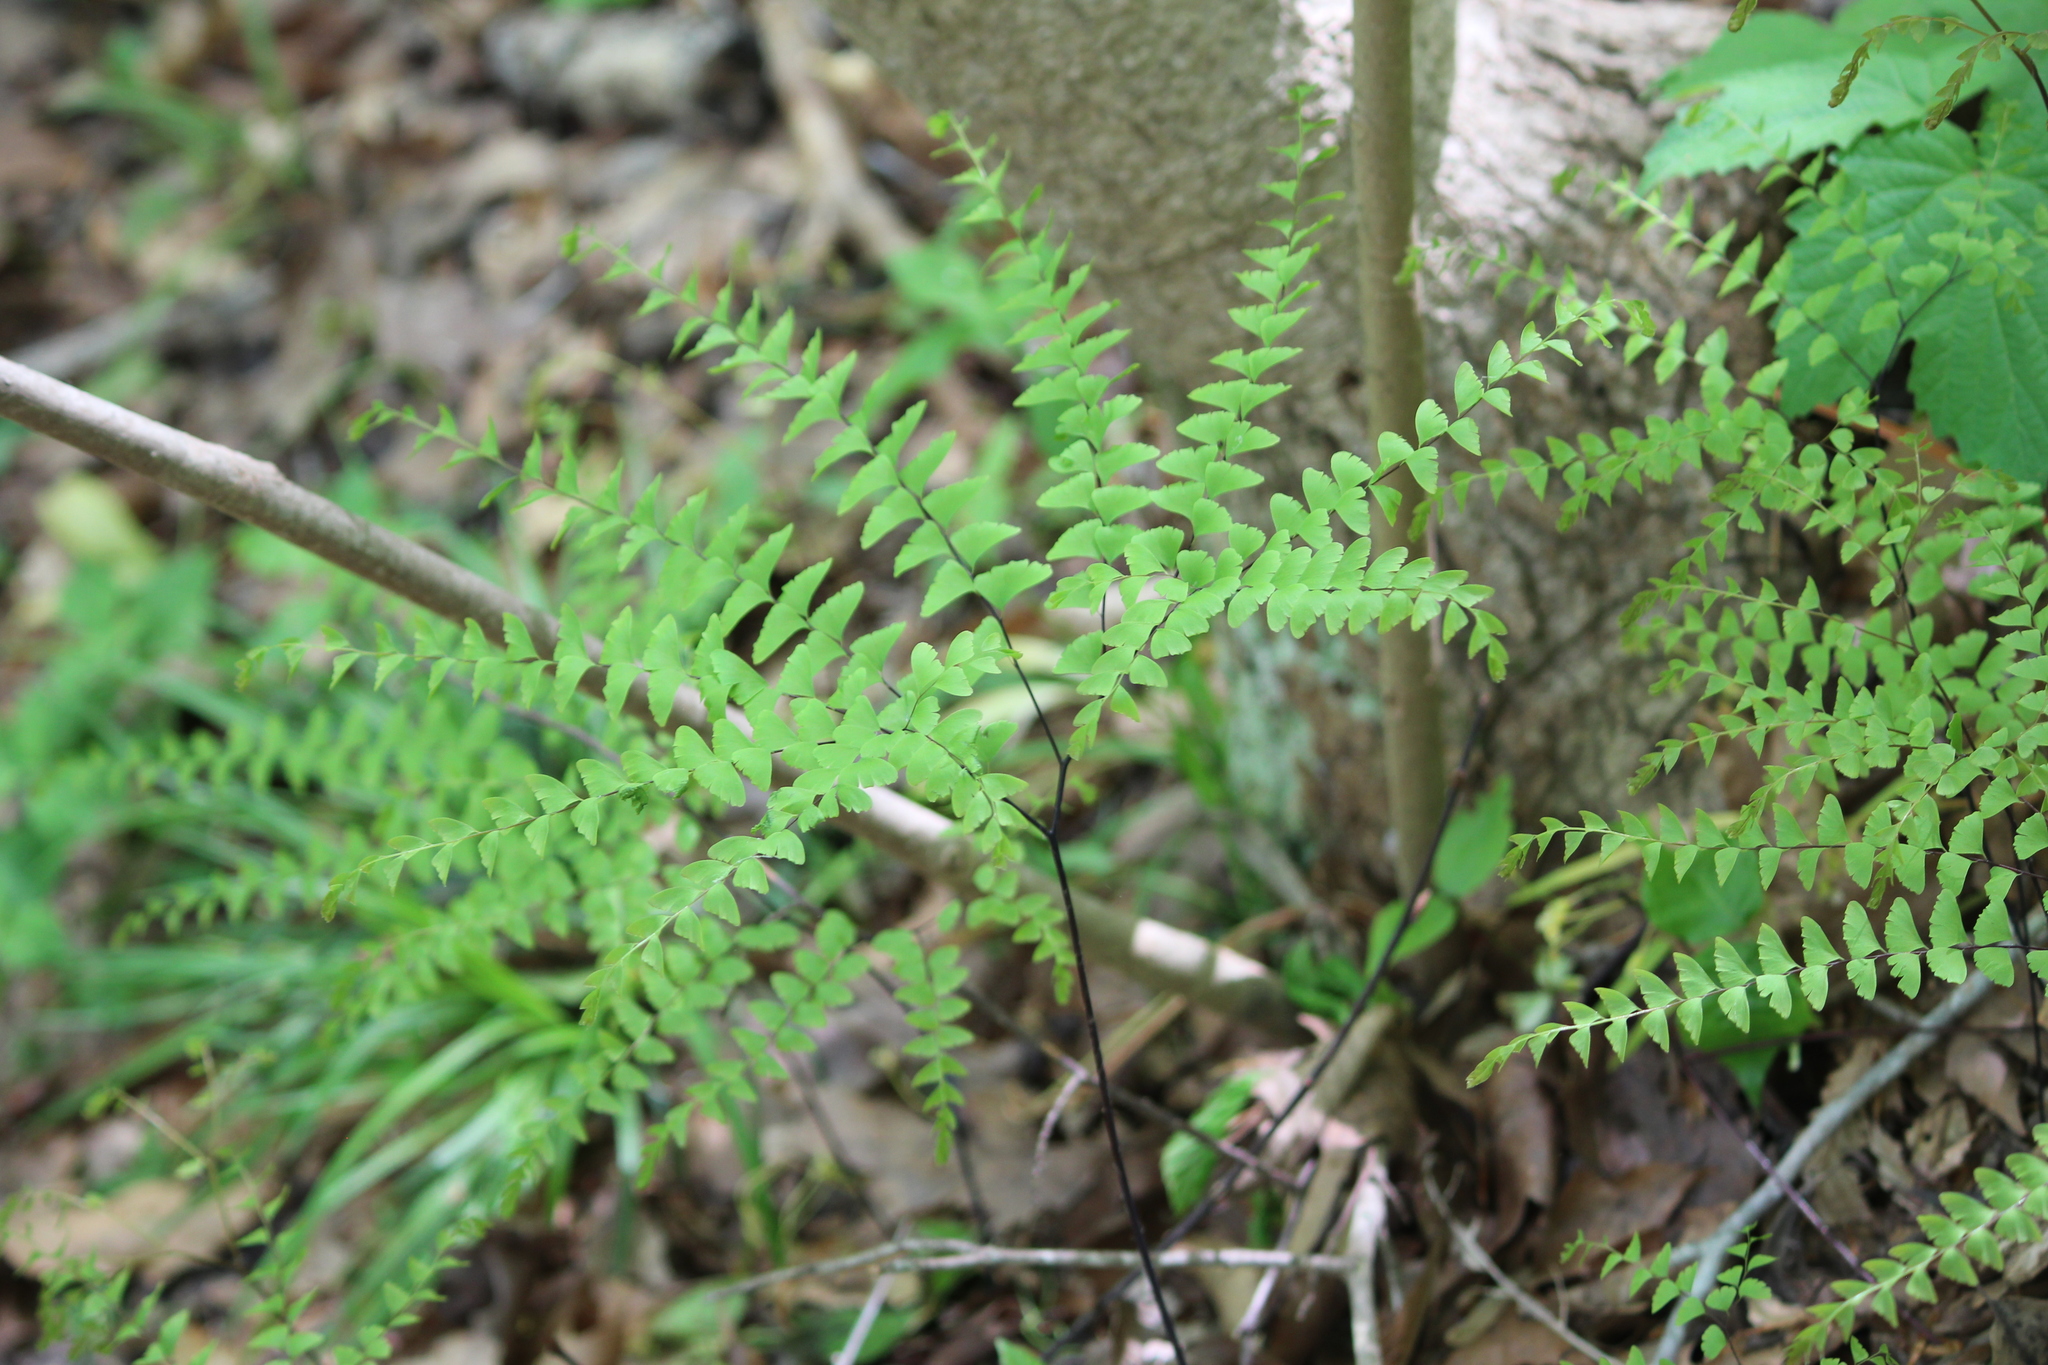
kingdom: Plantae
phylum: Tracheophyta
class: Polypodiopsida
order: Polypodiales
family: Pteridaceae
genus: Adiantum
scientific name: Adiantum pedatum
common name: Five-finger fern
